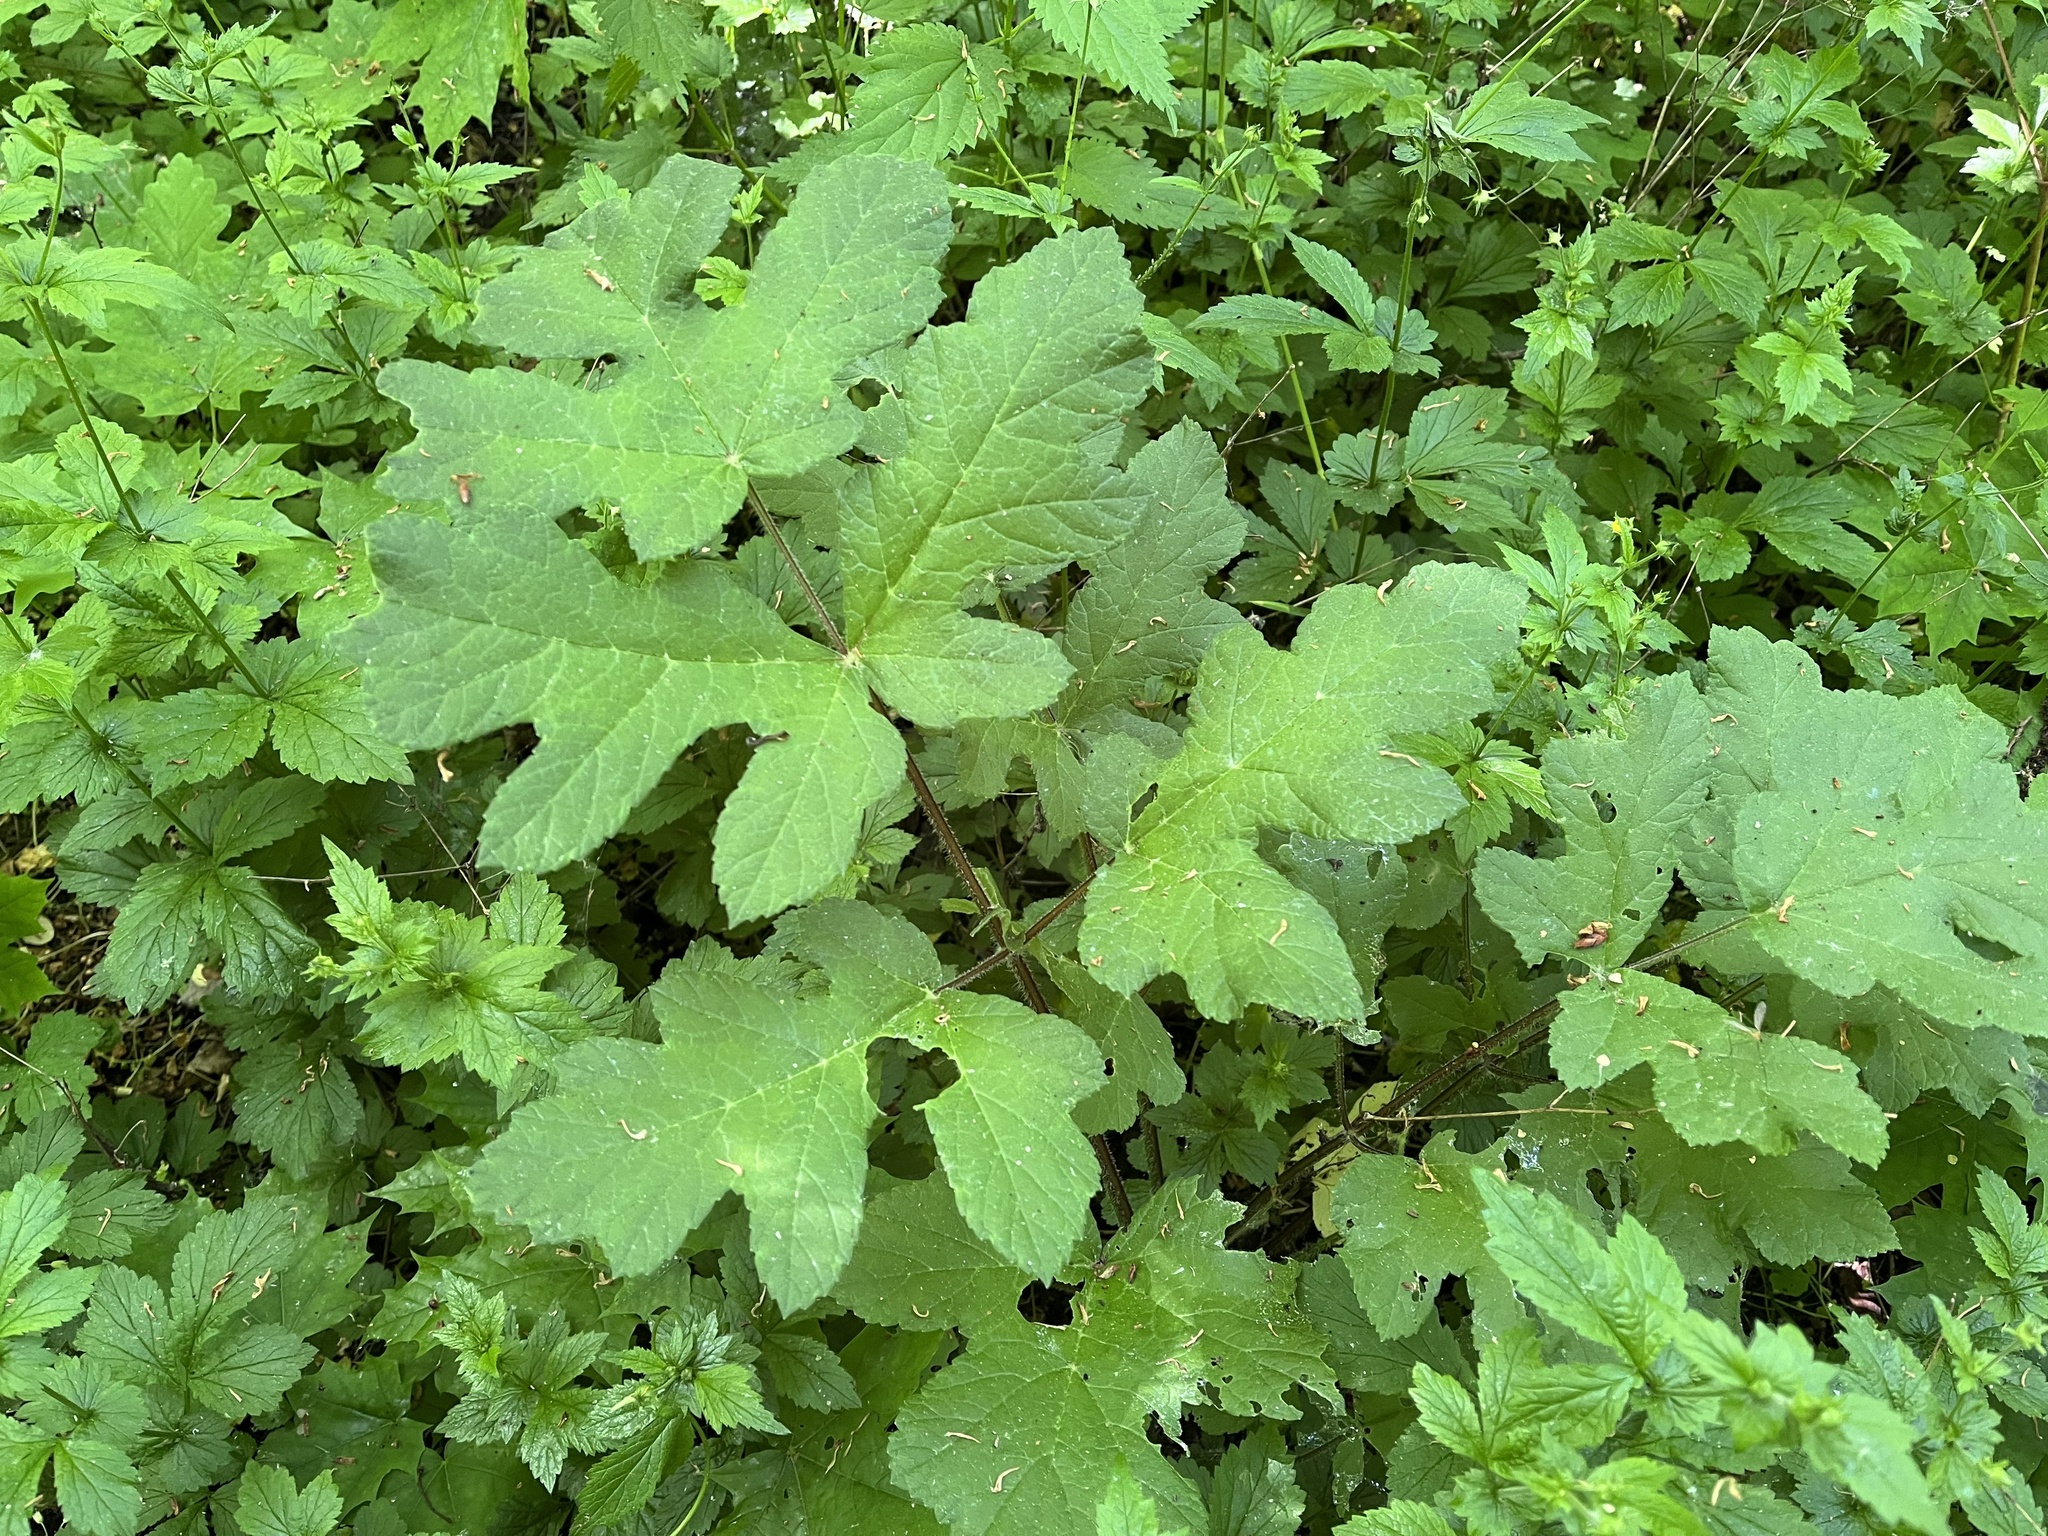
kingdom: Plantae
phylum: Tracheophyta
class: Magnoliopsida
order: Apiales
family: Apiaceae
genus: Heracleum
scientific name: Heracleum sphondylium
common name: Hogweed
